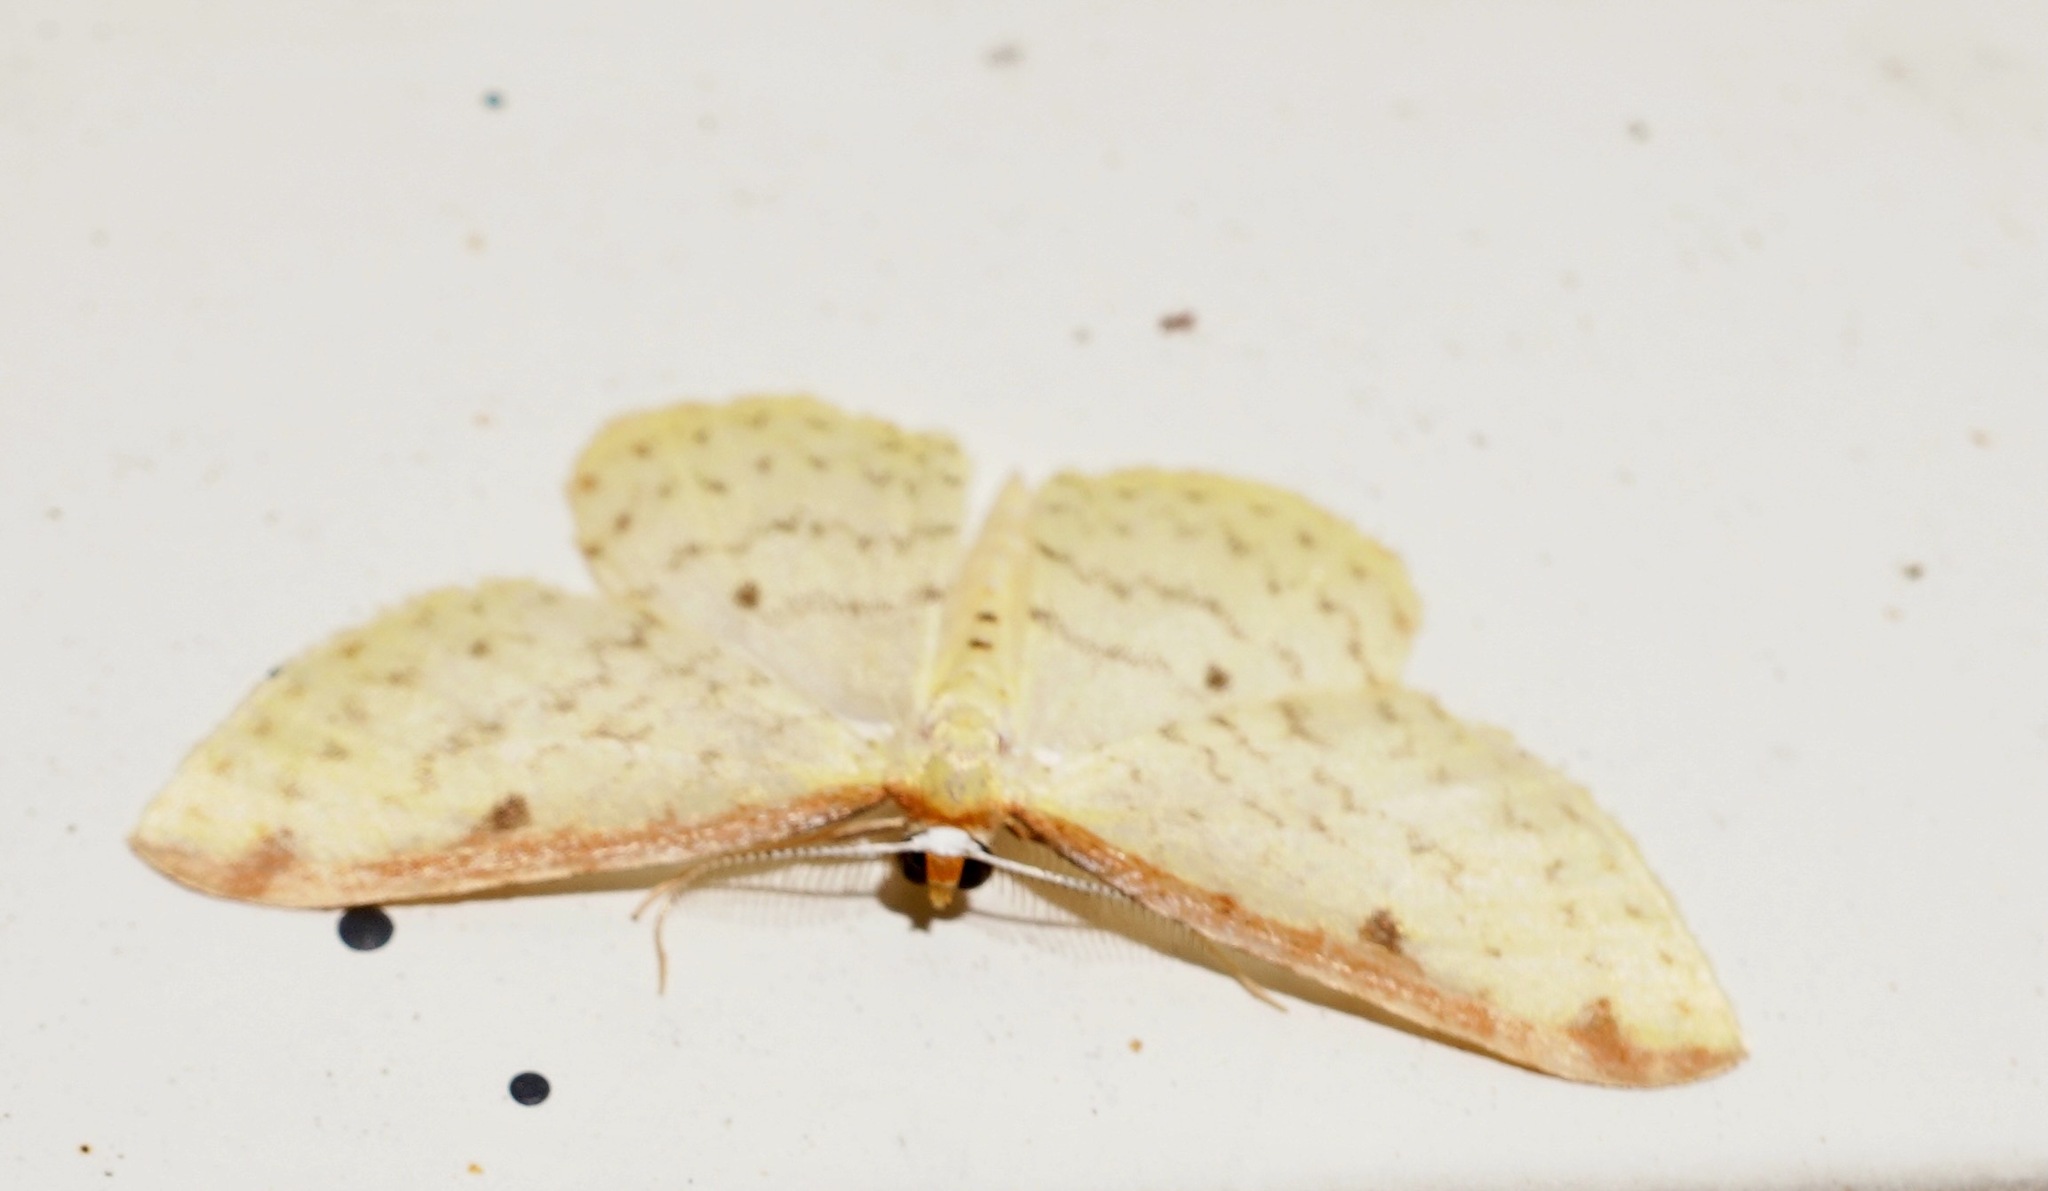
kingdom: Animalia
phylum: Arthropoda
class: Insecta
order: Lepidoptera
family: Geometridae
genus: Epiphryne
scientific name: Epiphryne undosata
